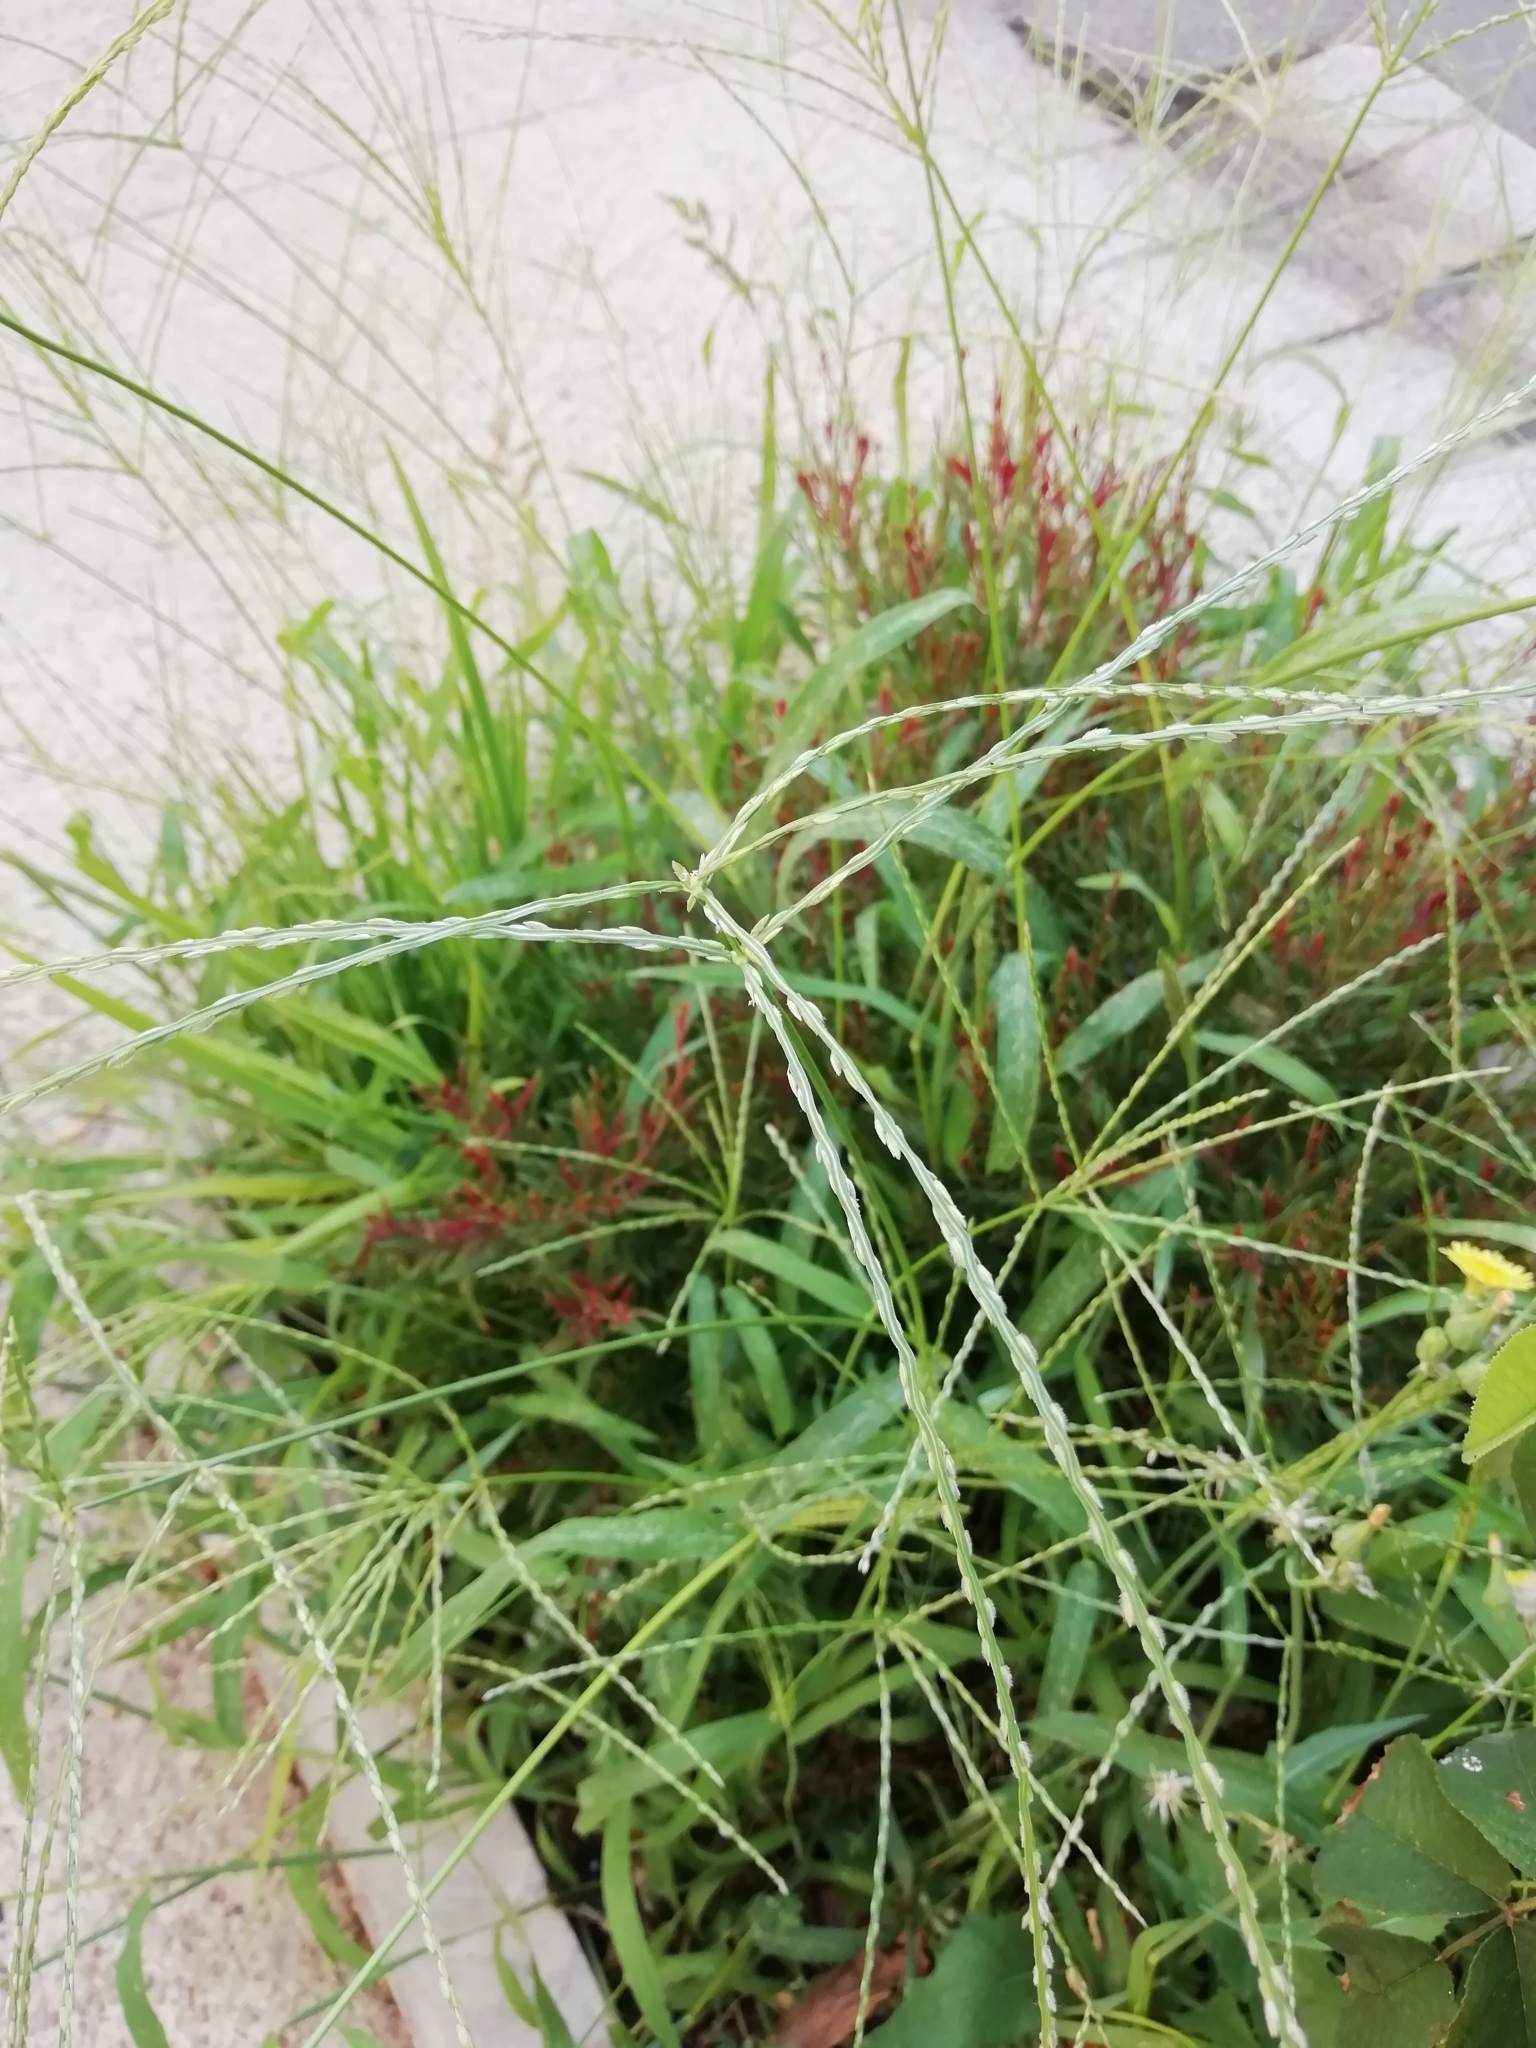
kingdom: Plantae
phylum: Tracheophyta
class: Liliopsida
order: Poales
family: Poaceae
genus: Digitaria
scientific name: Digitaria sanguinalis
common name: Hairy crabgrass
